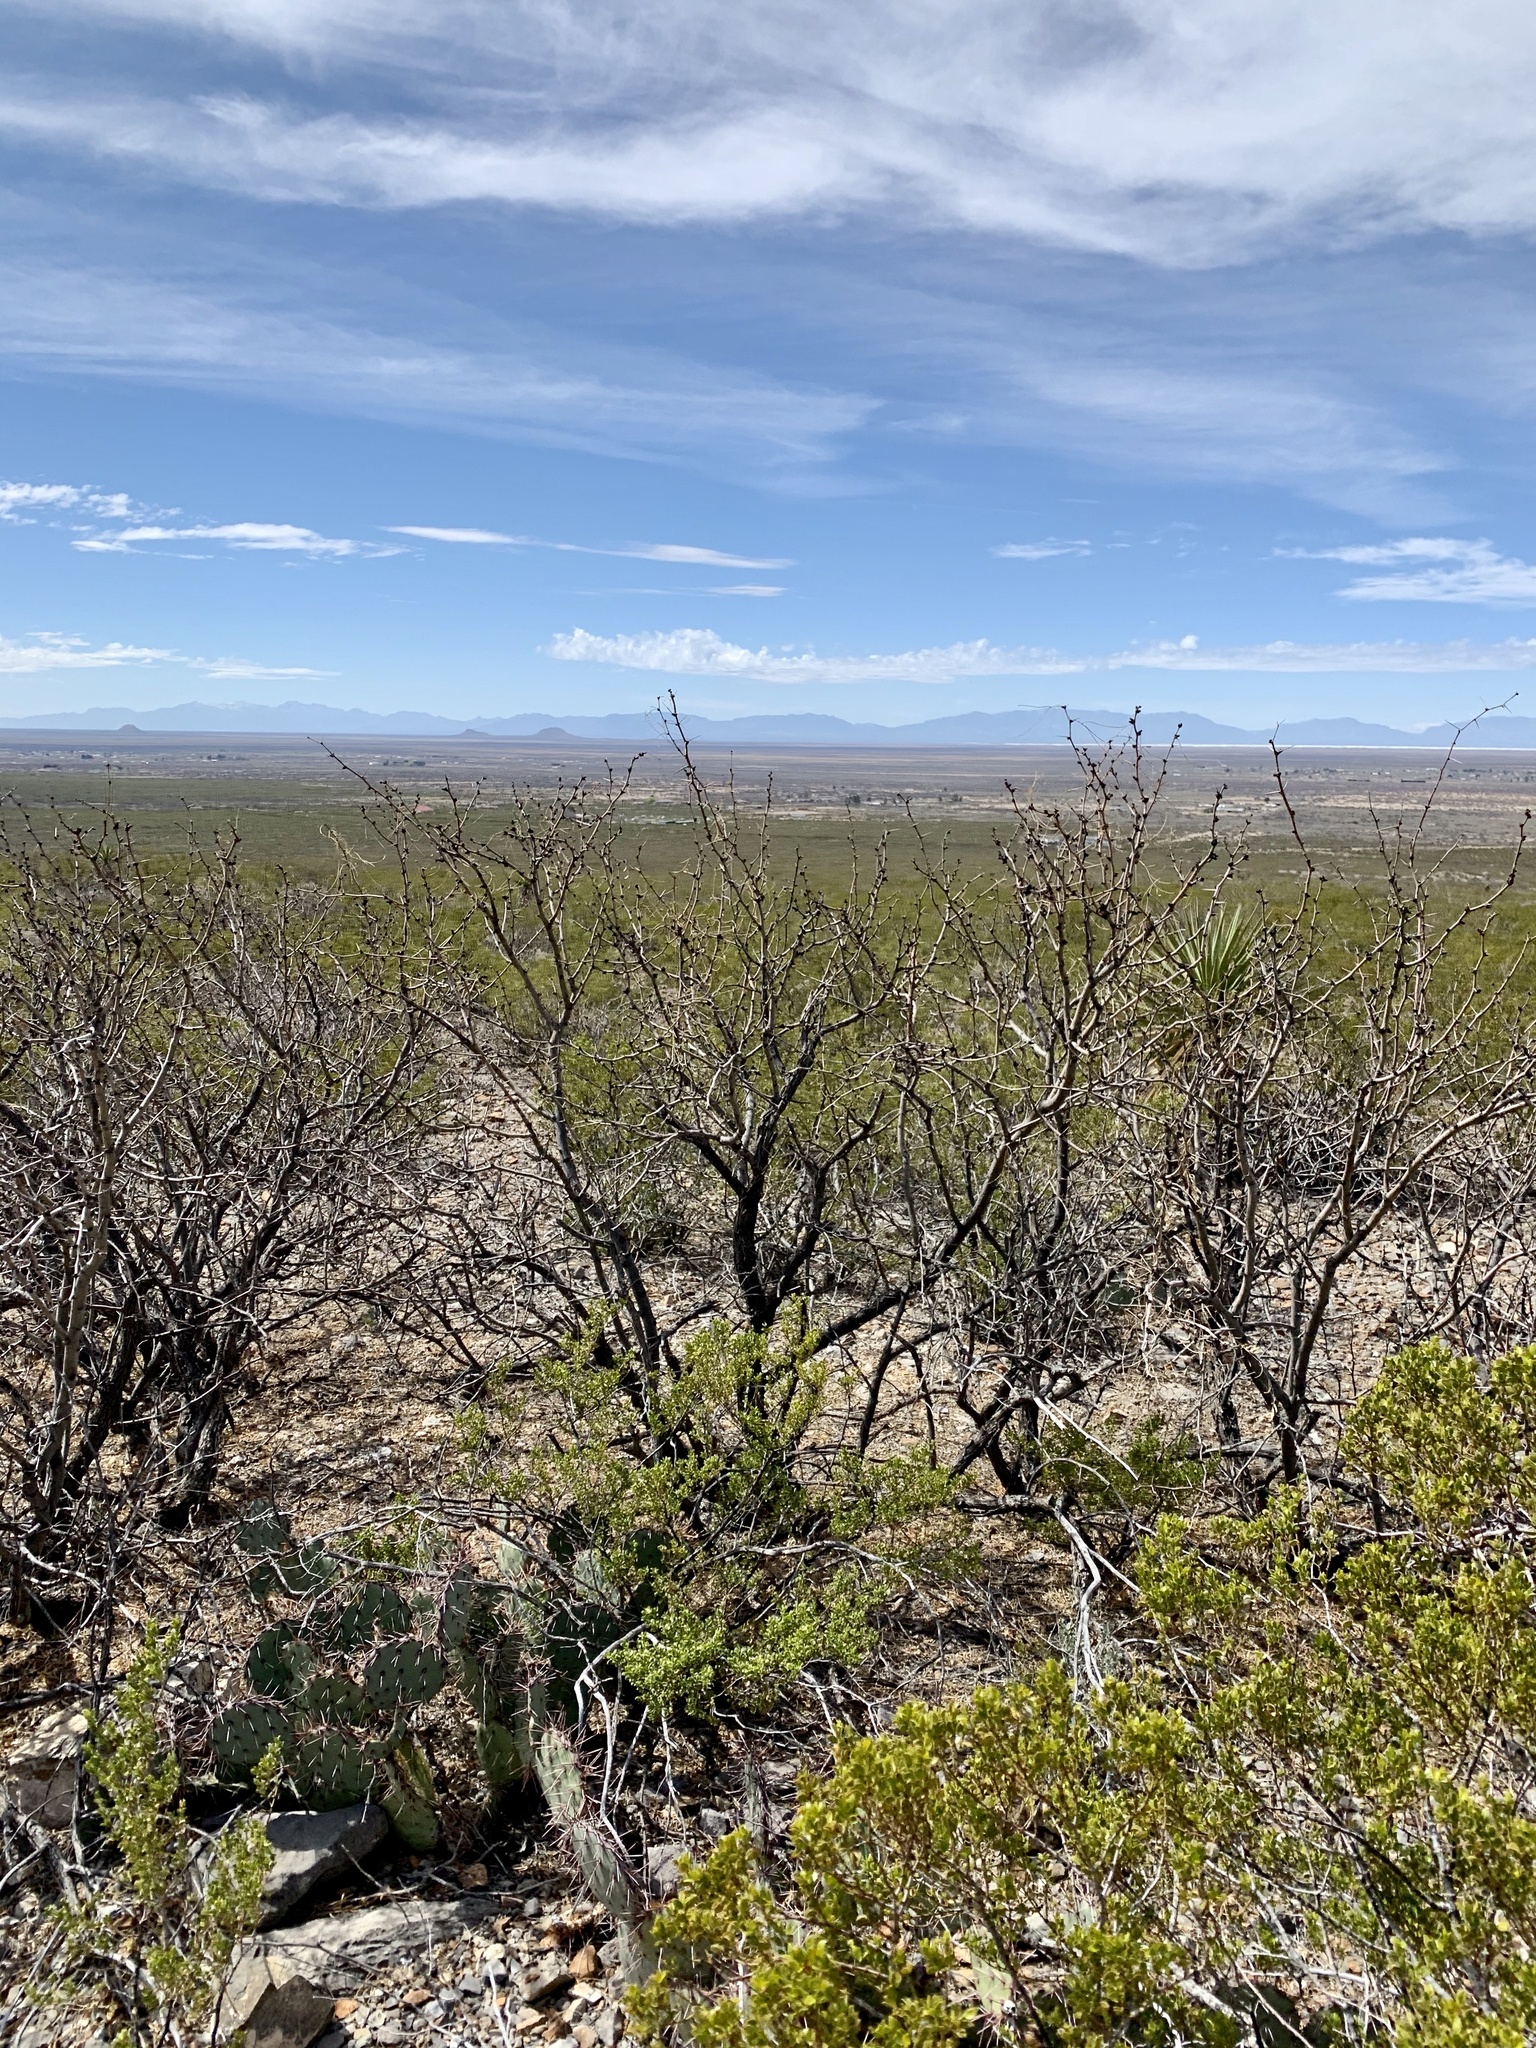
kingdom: Plantae
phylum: Tracheophyta
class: Magnoliopsida
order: Fabales
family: Fabaceae
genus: Prosopis
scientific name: Prosopis glandulosa
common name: Honey mesquite
